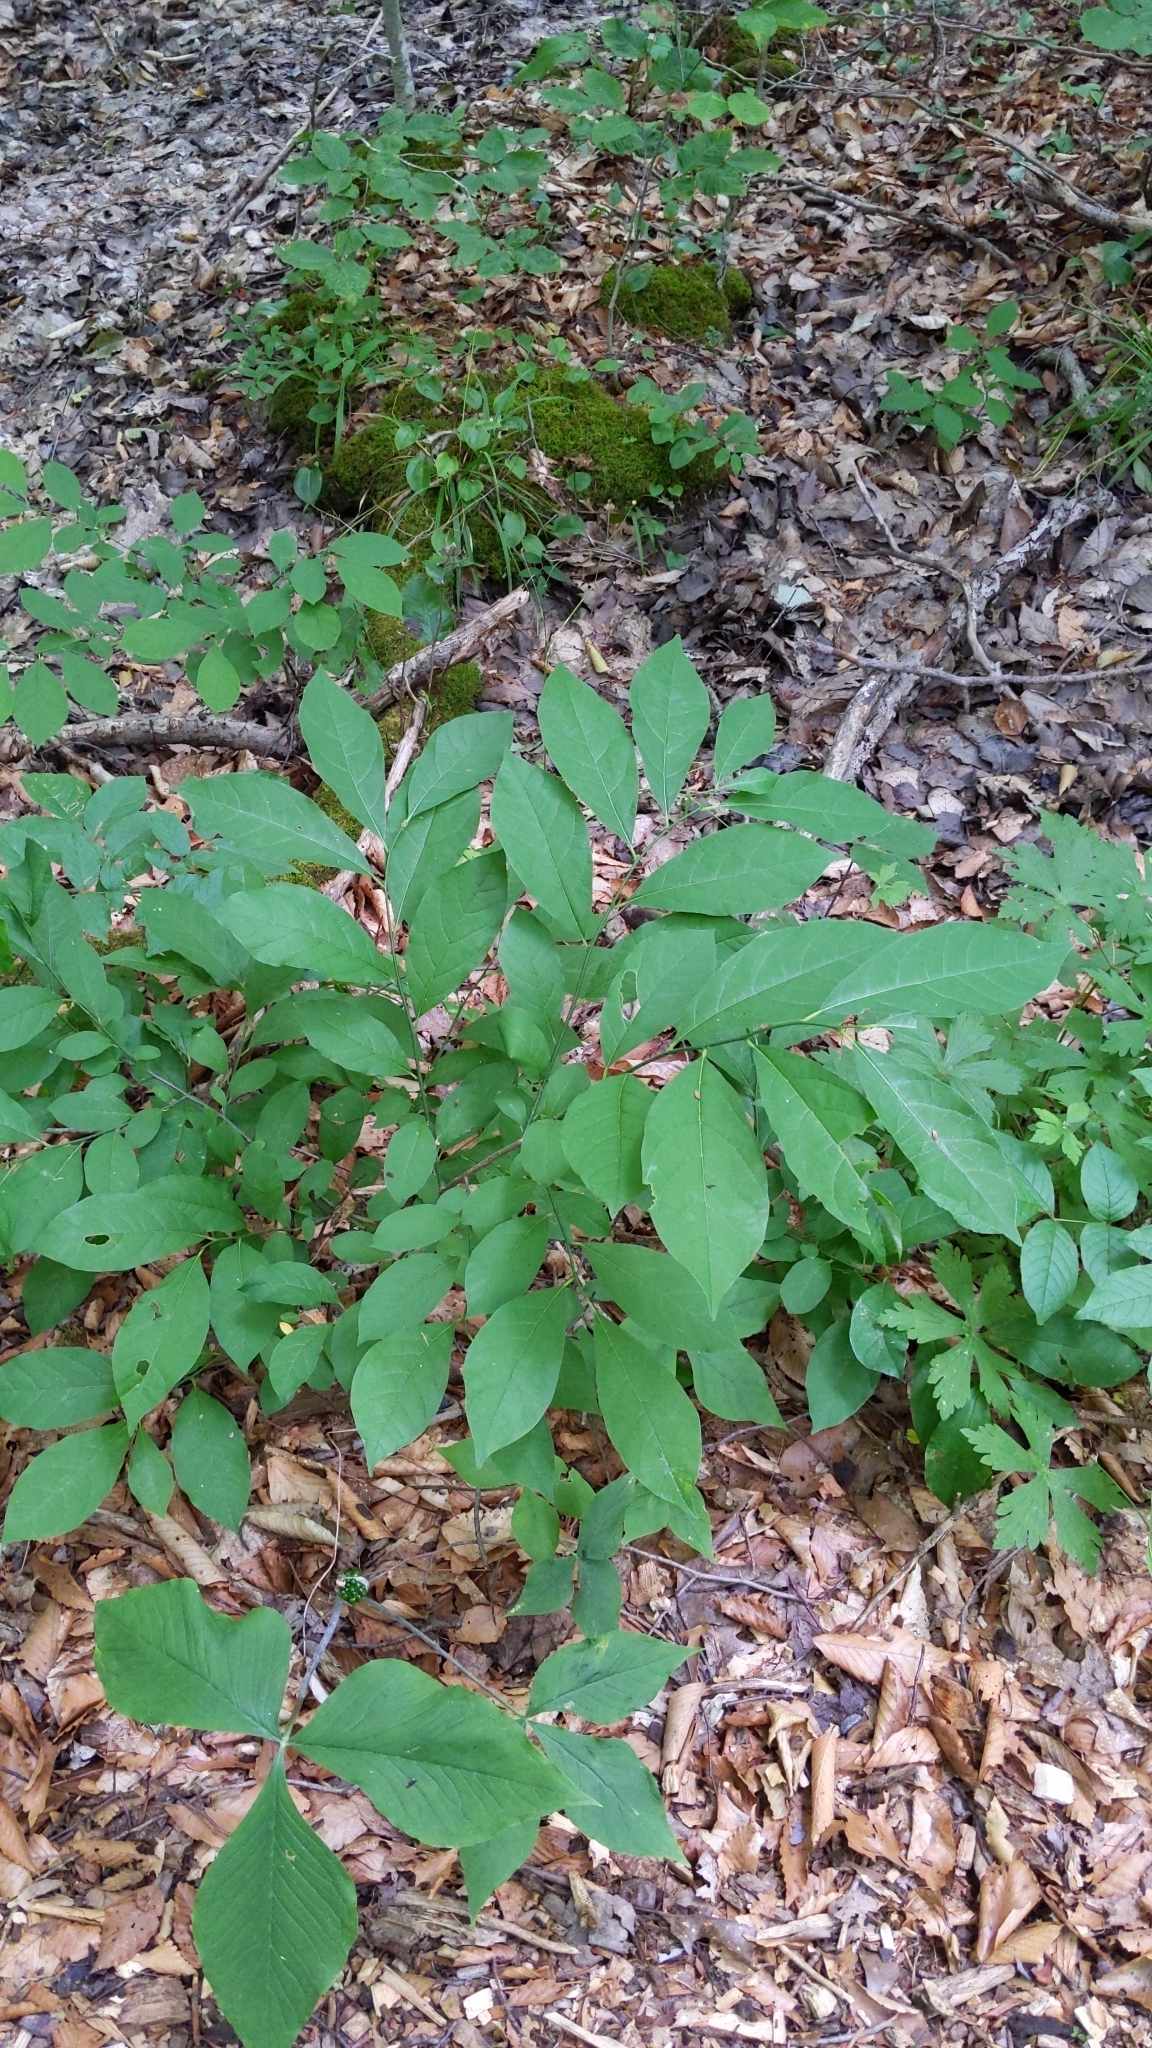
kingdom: Plantae
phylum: Tracheophyta
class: Magnoliopsida
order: Laurales
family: Lauraceae
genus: Lindera
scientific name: Lindera benzoin
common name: Spicebush
